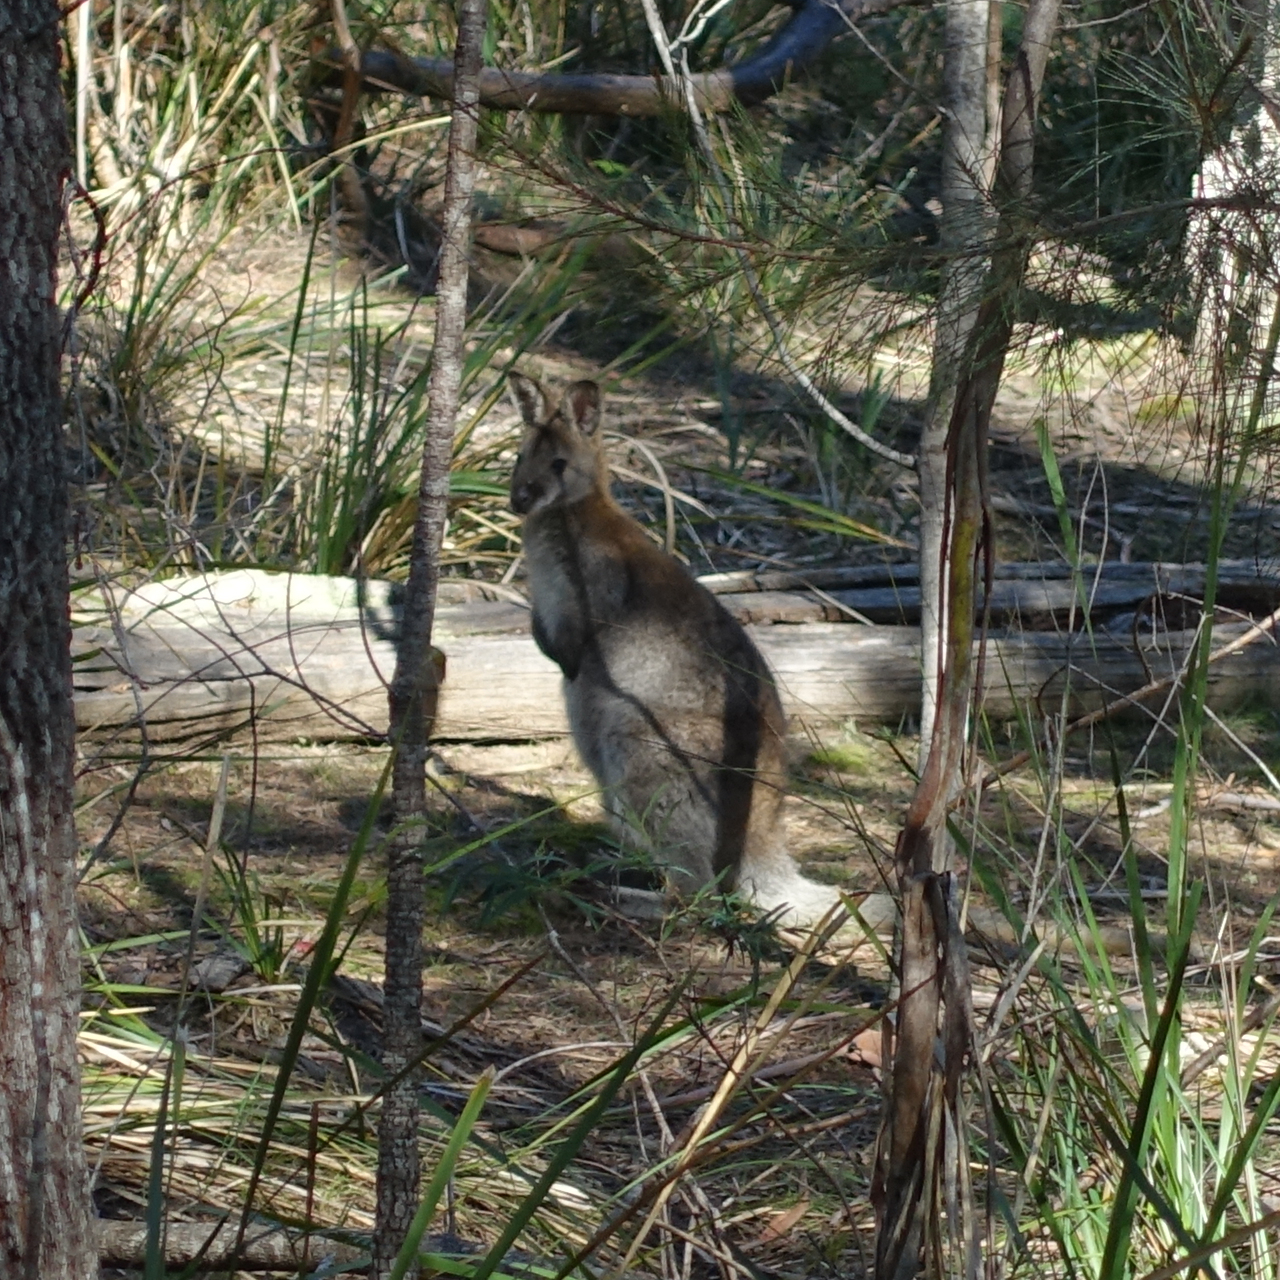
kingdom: Animalia
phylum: Chordata
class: Mammalia
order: Diprotodontia
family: Macropodidae
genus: Notamacropus
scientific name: Notamacropus rufogriseus
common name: Red-necked wallaby
